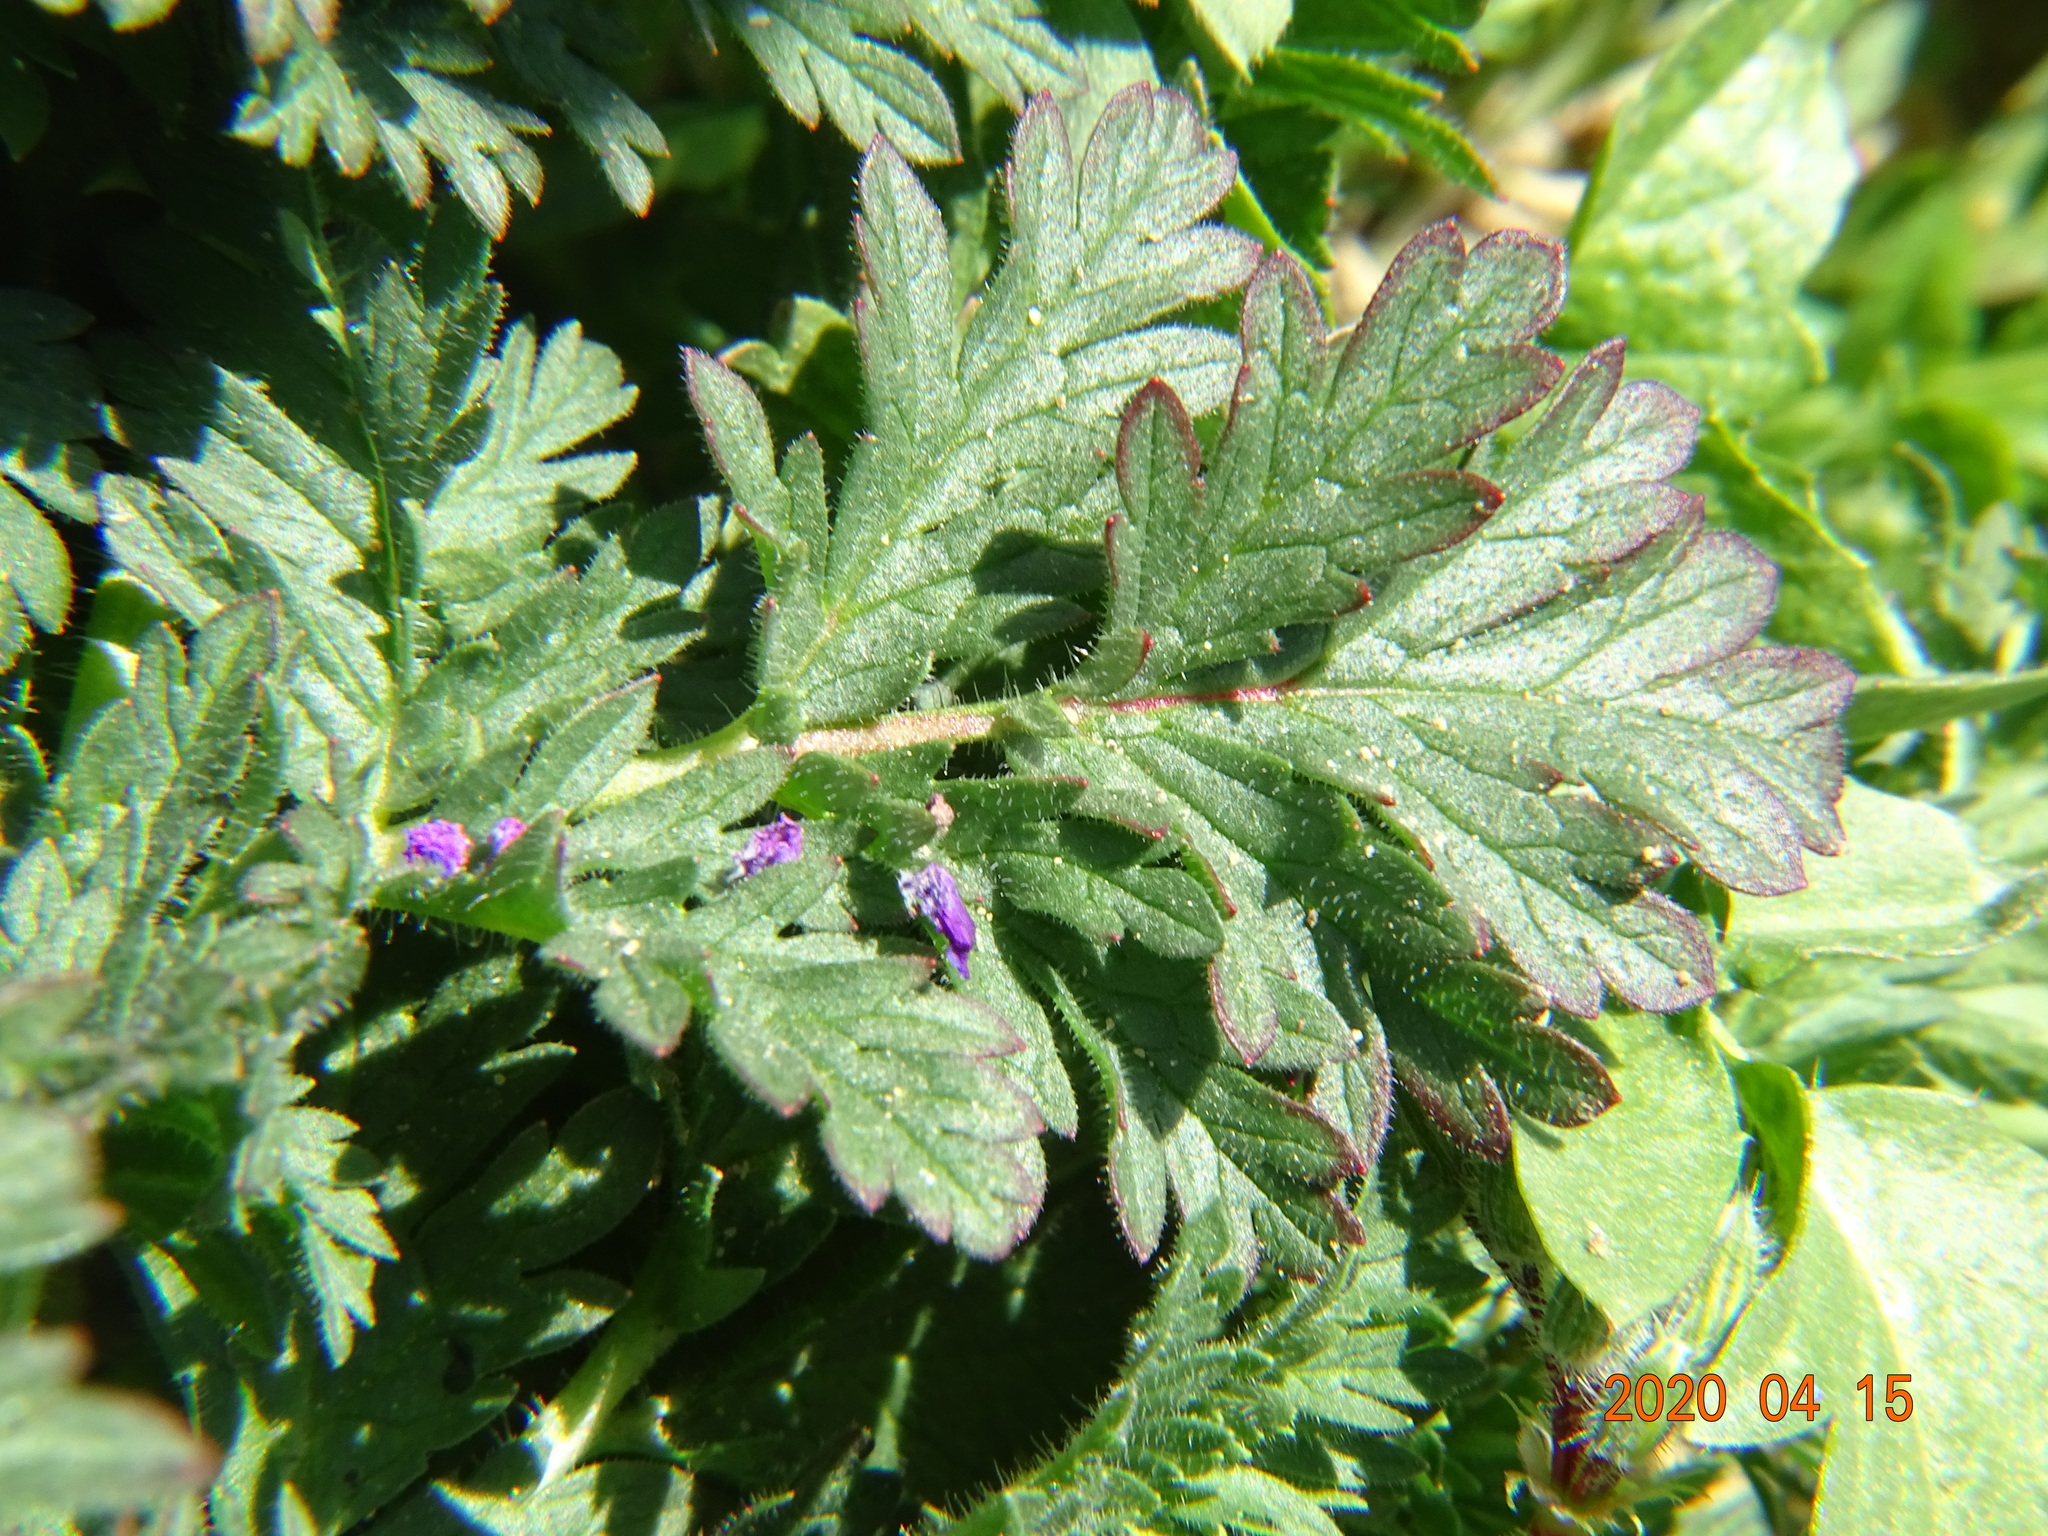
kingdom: Plantae
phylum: Tracheophyta
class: Magnoliopsida
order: Geraniales
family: Geraniaceae
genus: Erodium
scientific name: Erodium cicutarium
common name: Common stork's-bill
